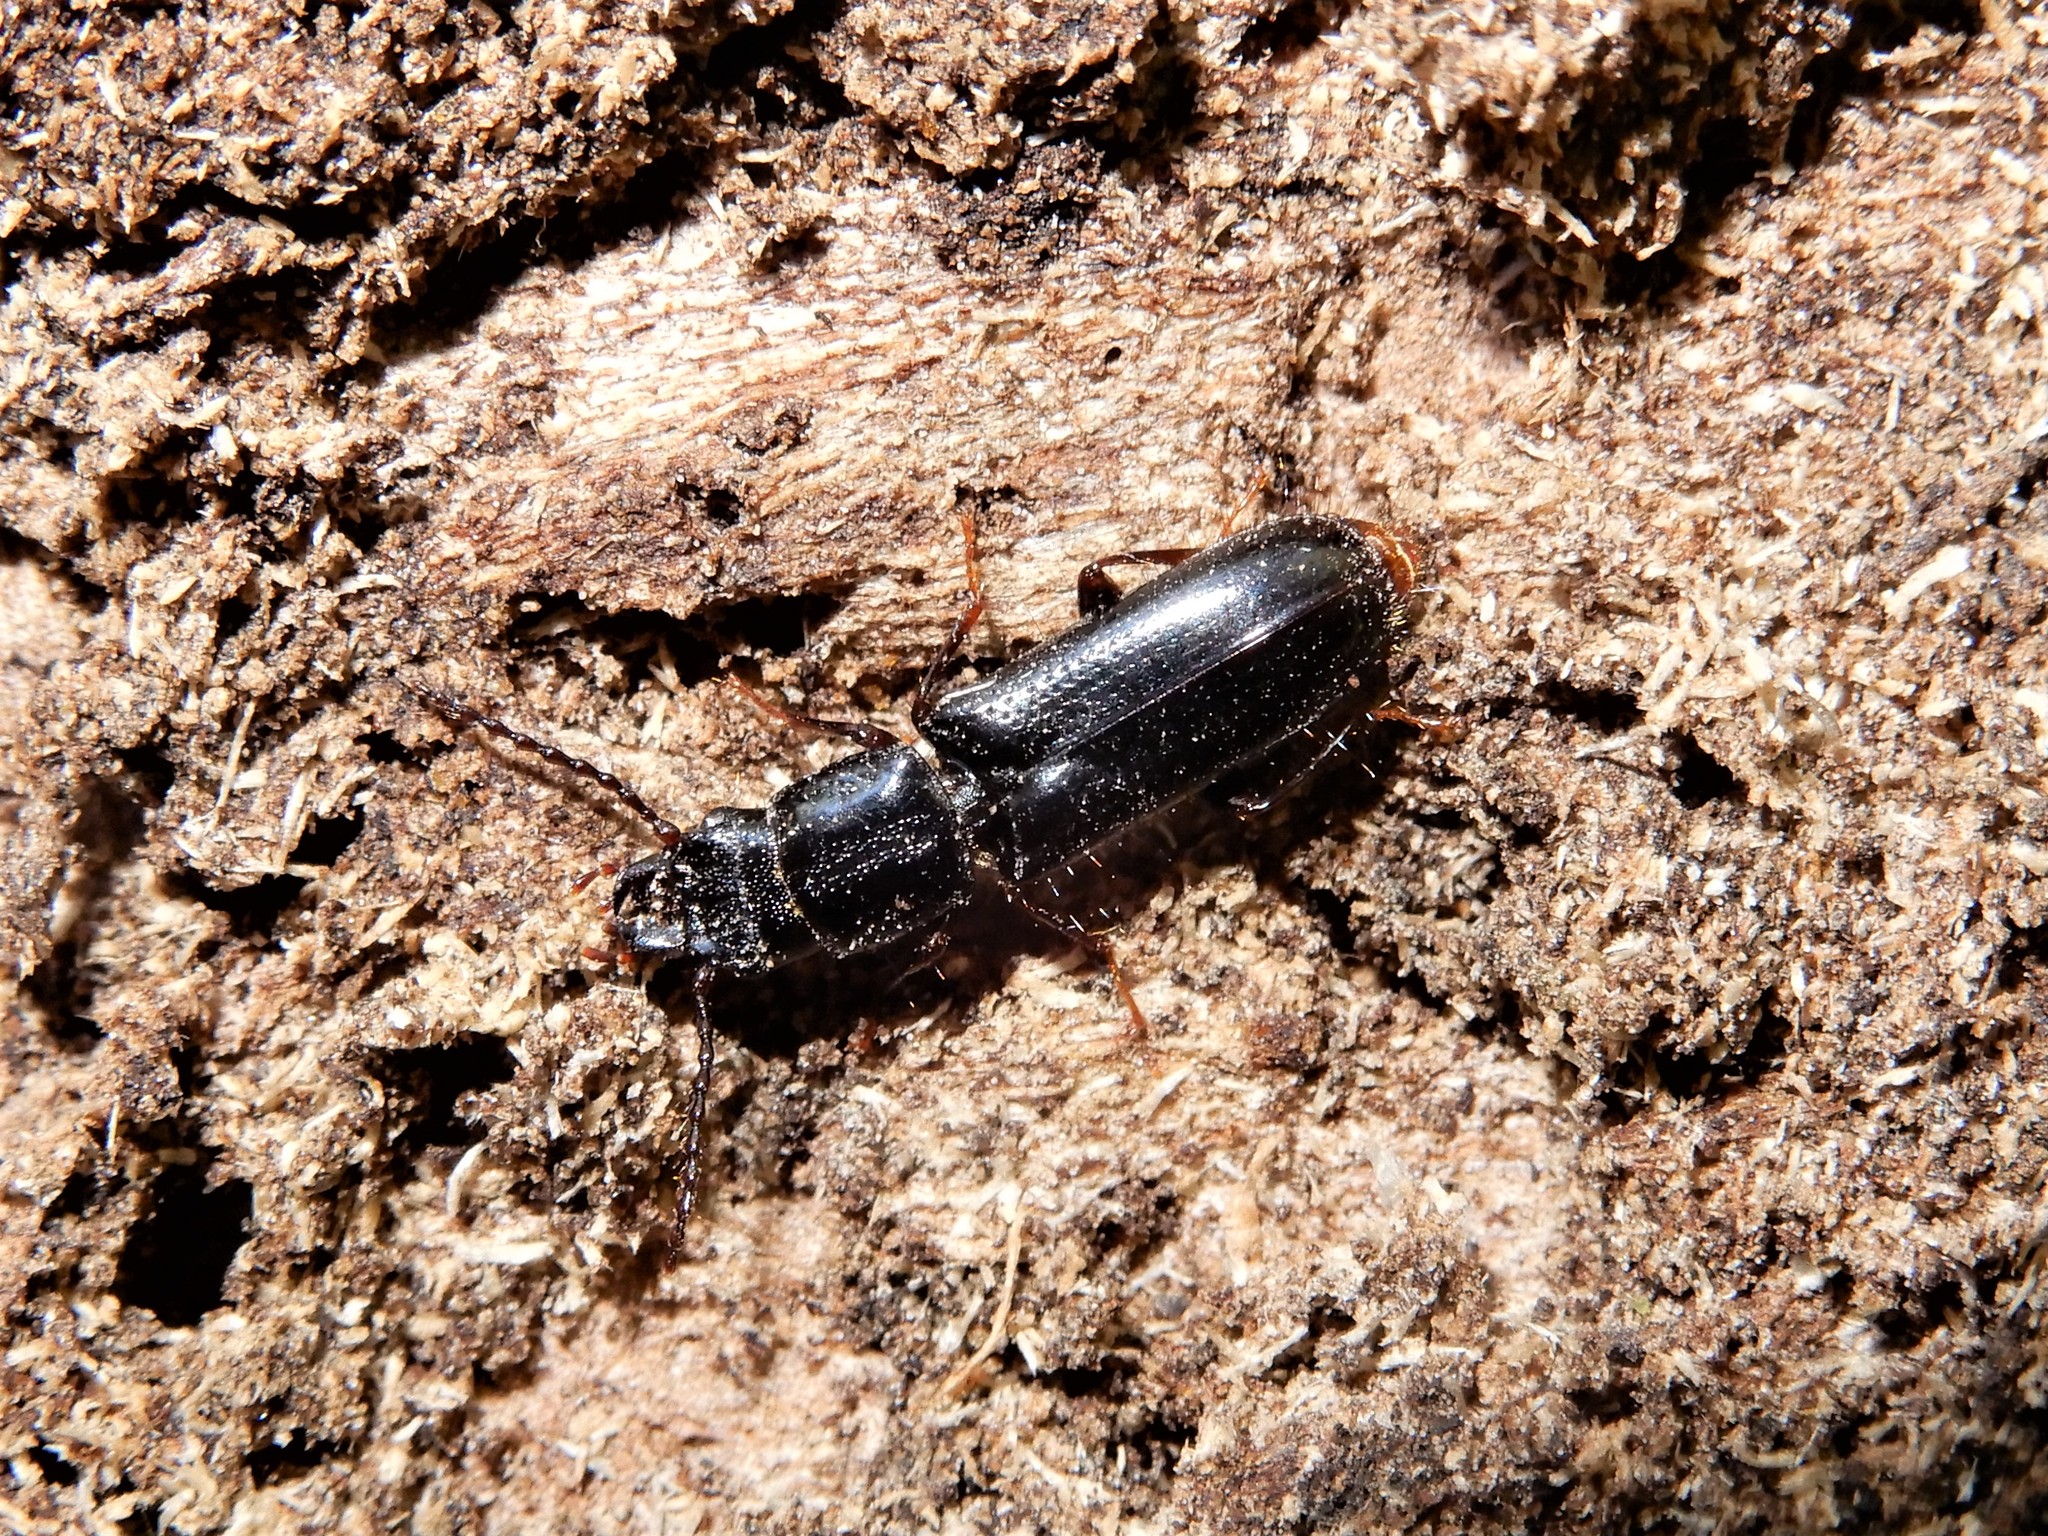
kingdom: Animalia
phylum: Arthropoda
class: Insecta
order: Coleoptera
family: Chaetosomatidae
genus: Chaetosoma
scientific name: Chaetosoma
